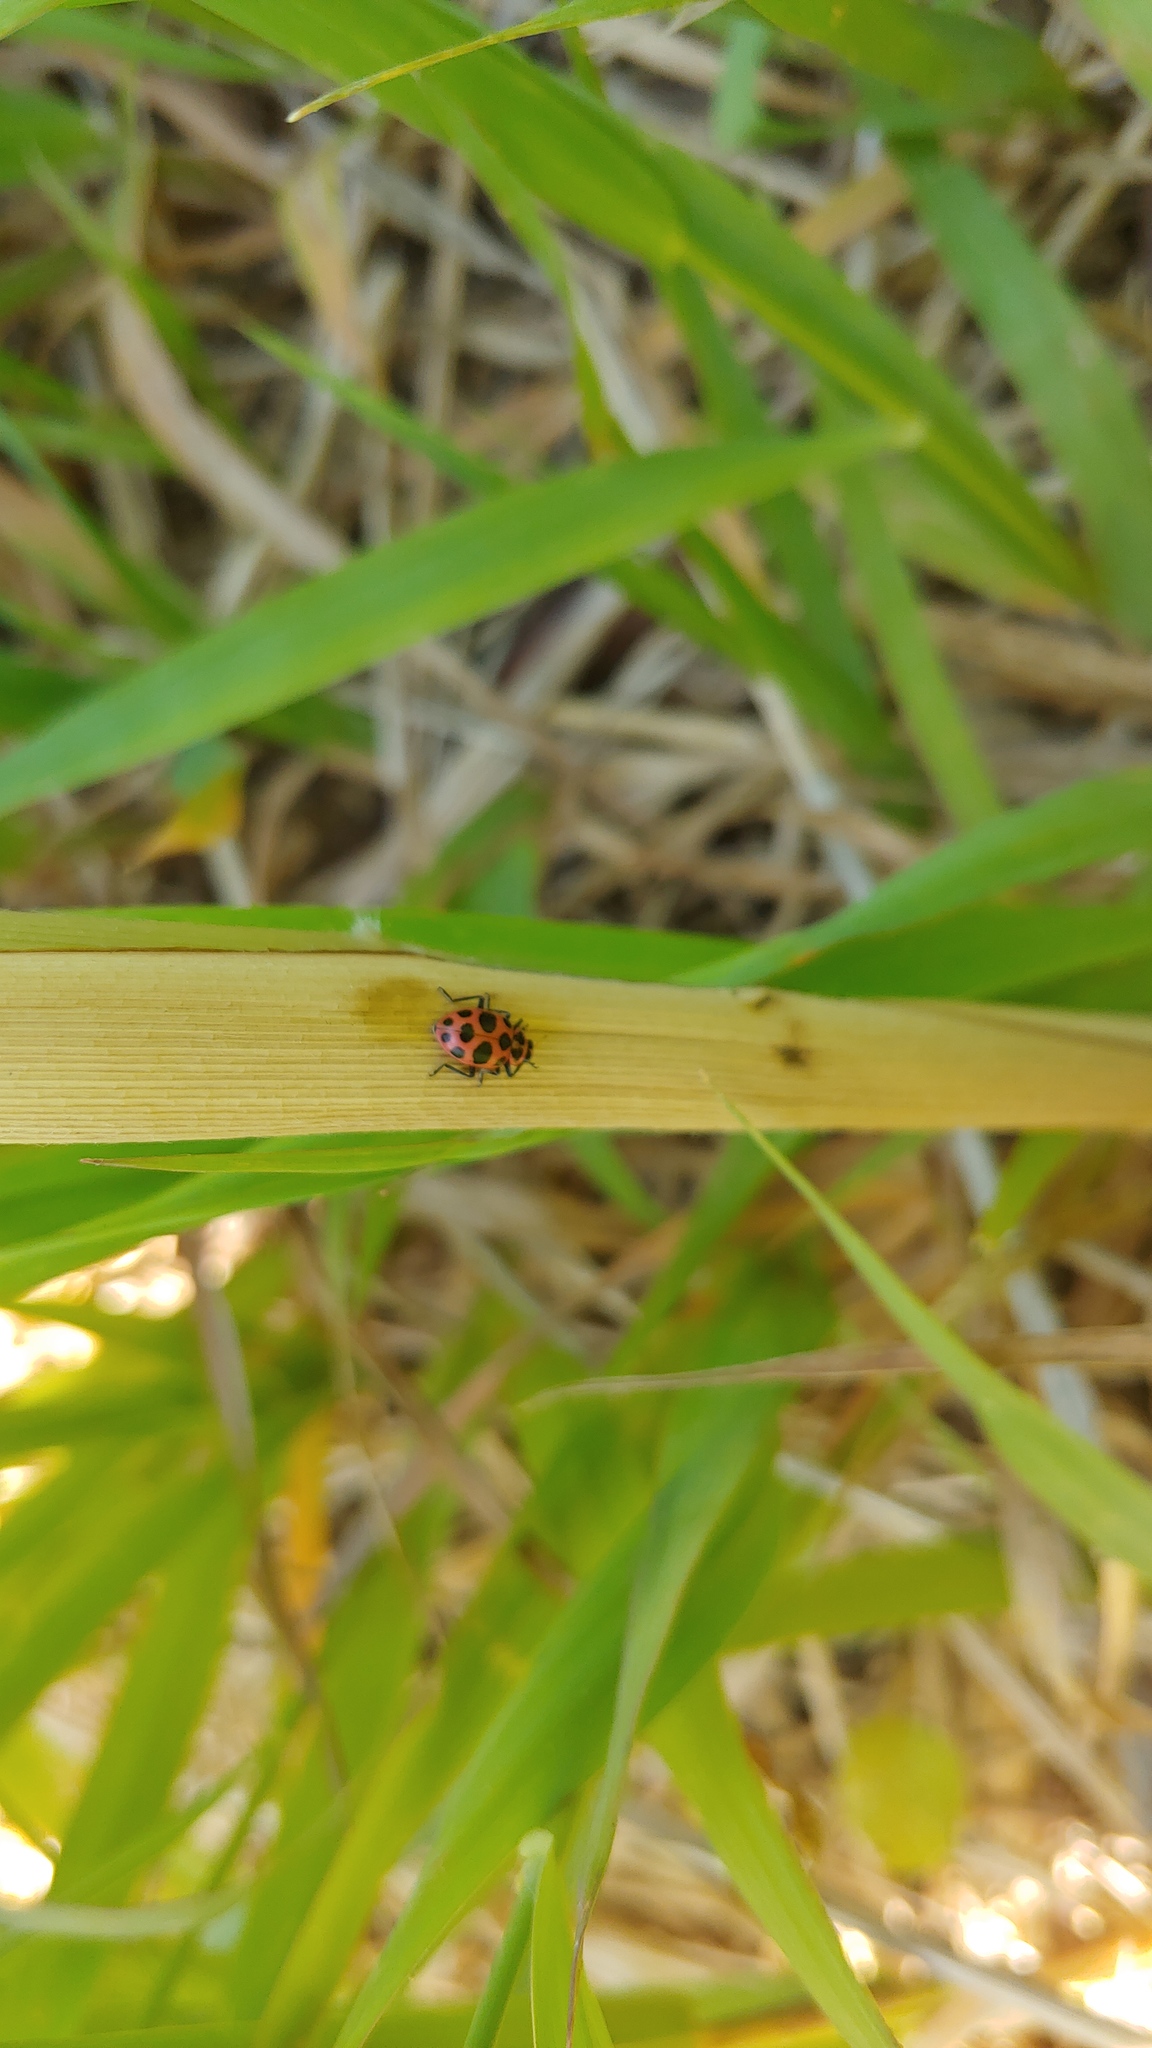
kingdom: Animalia
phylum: Arthropoda
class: Insecta
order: Coleoptera
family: Coccinellidae
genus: Coleomegilla
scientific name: Coleomegilla maculata
